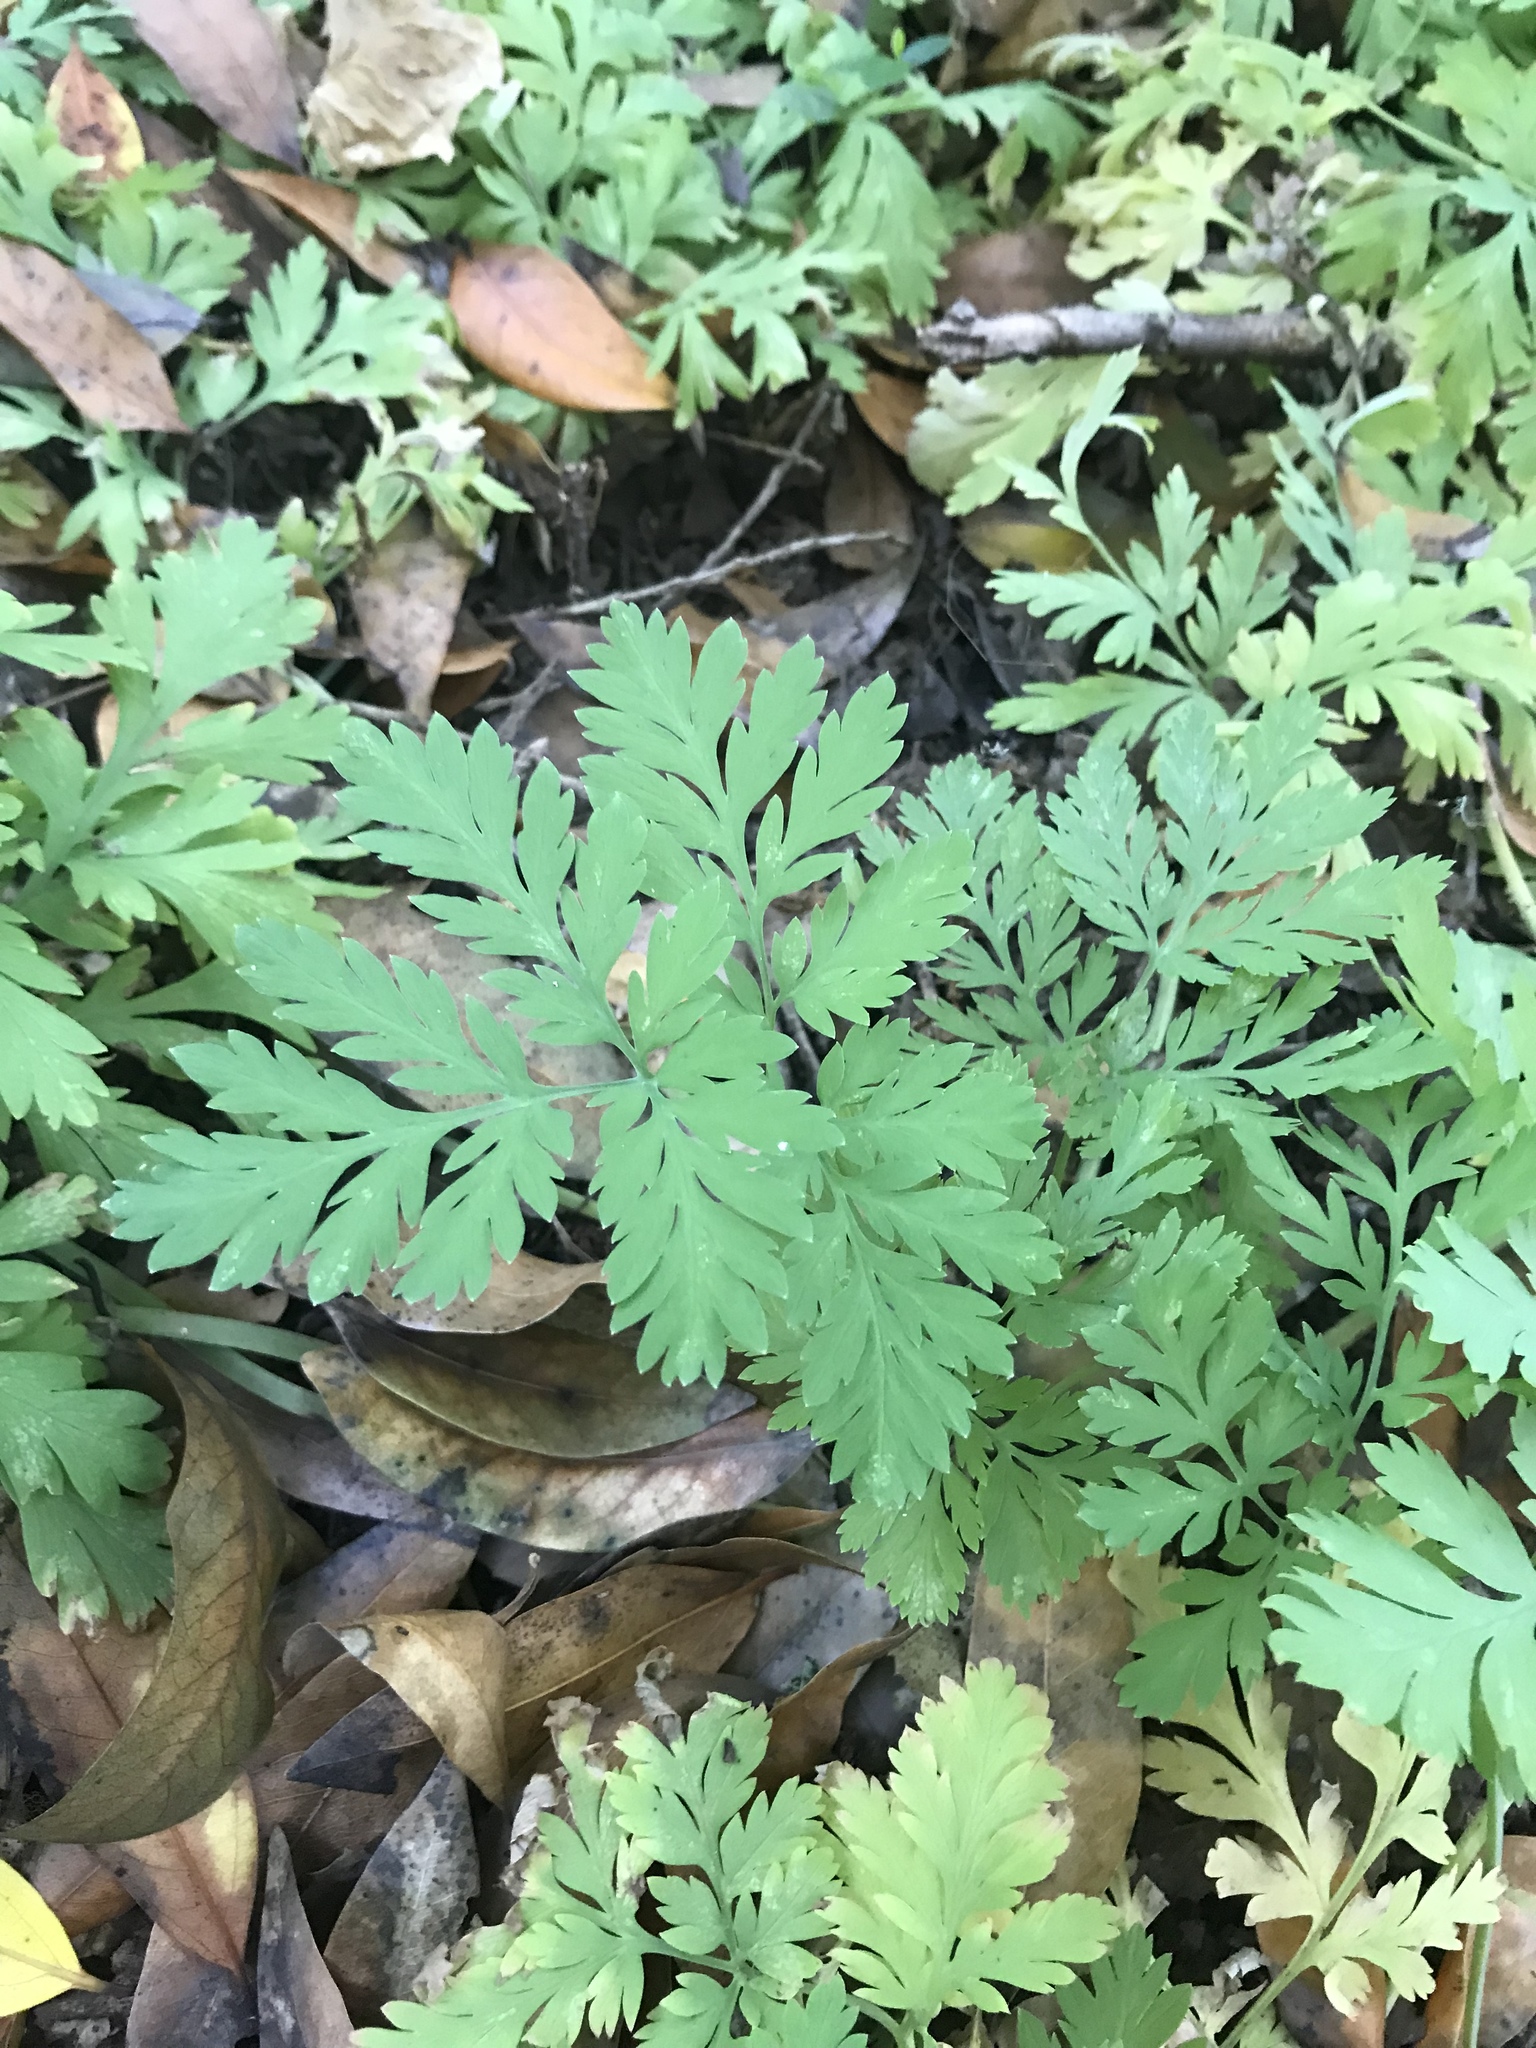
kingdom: Plantae
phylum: Tracheophyta
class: Magnoliopsida
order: Ranunculales
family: Papaveraceae
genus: Dicentra
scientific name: Dicentra formosa
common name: Bleeding-heart
